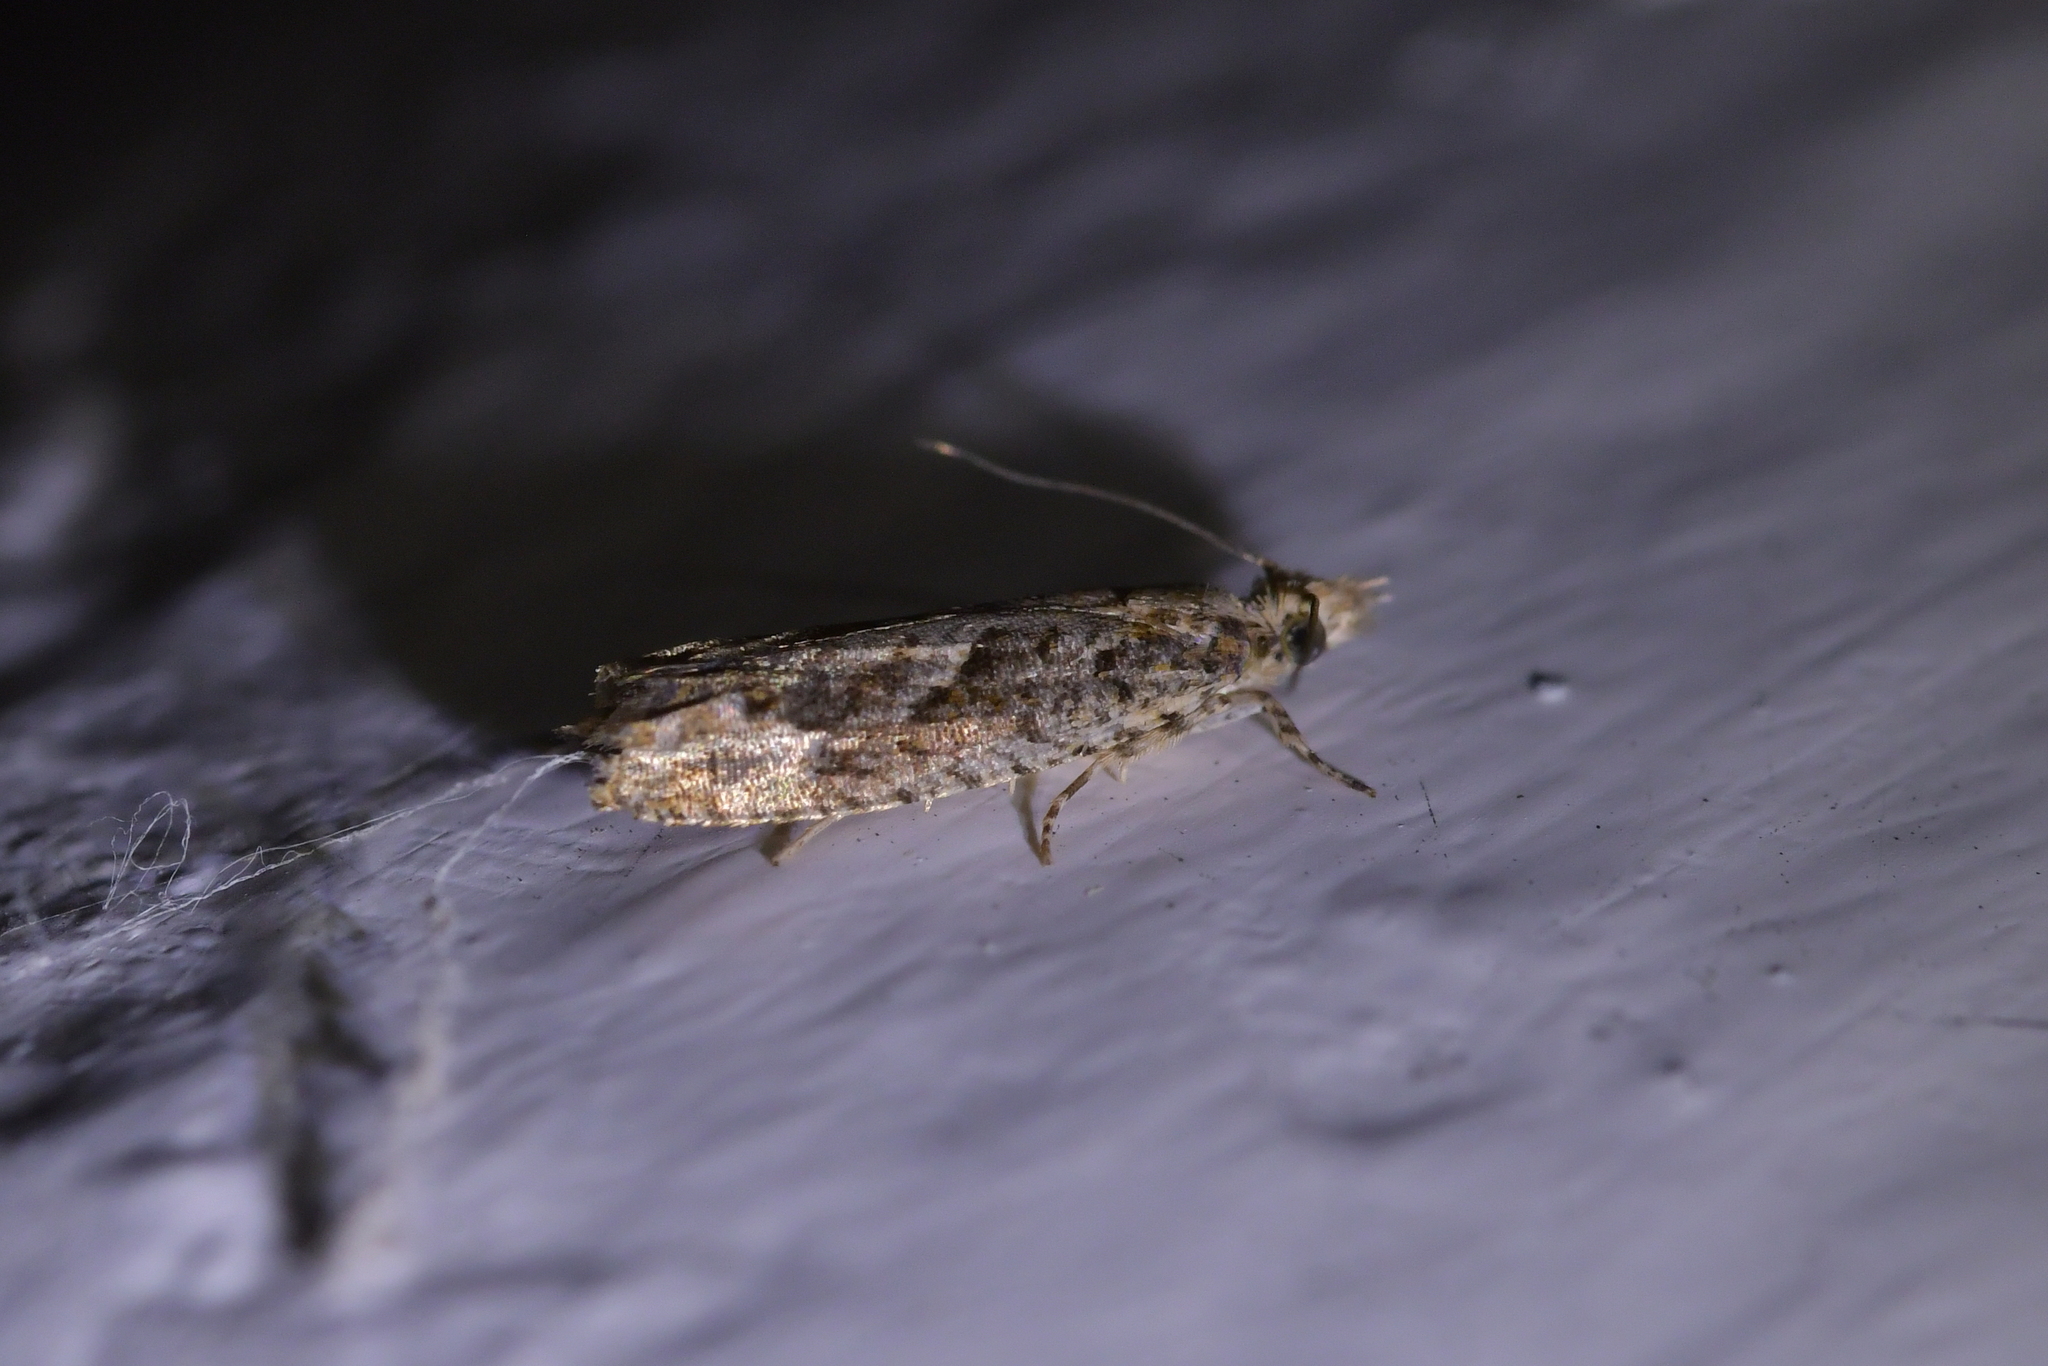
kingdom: Animalia
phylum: Arthropoda
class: Insecta
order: Lepidoptera
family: Tortricidae
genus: Strepsicrates
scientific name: Strepsicrates ejectana
